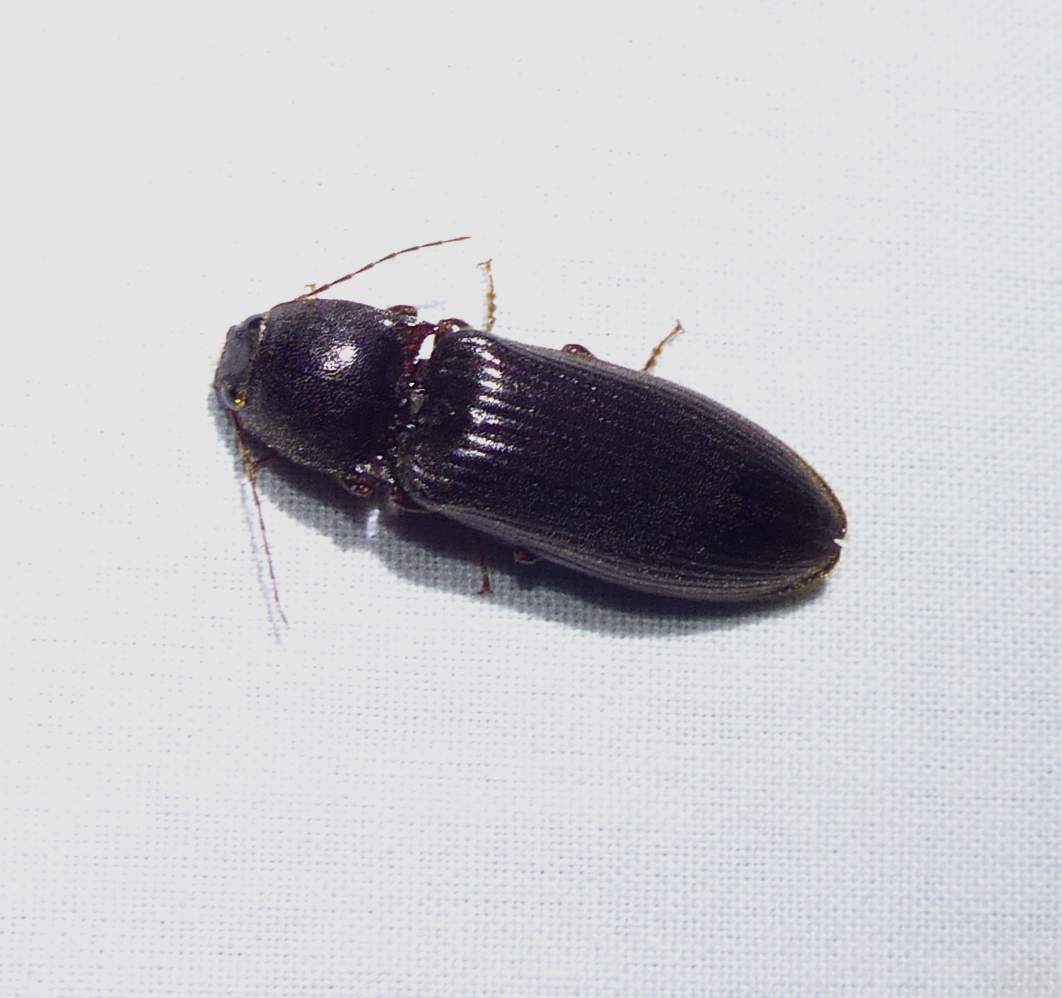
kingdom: Animalia
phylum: Arthropoda
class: Insecta
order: Coleoptera
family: Elateridae
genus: Hemicrepidius
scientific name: Hemicrepidius
